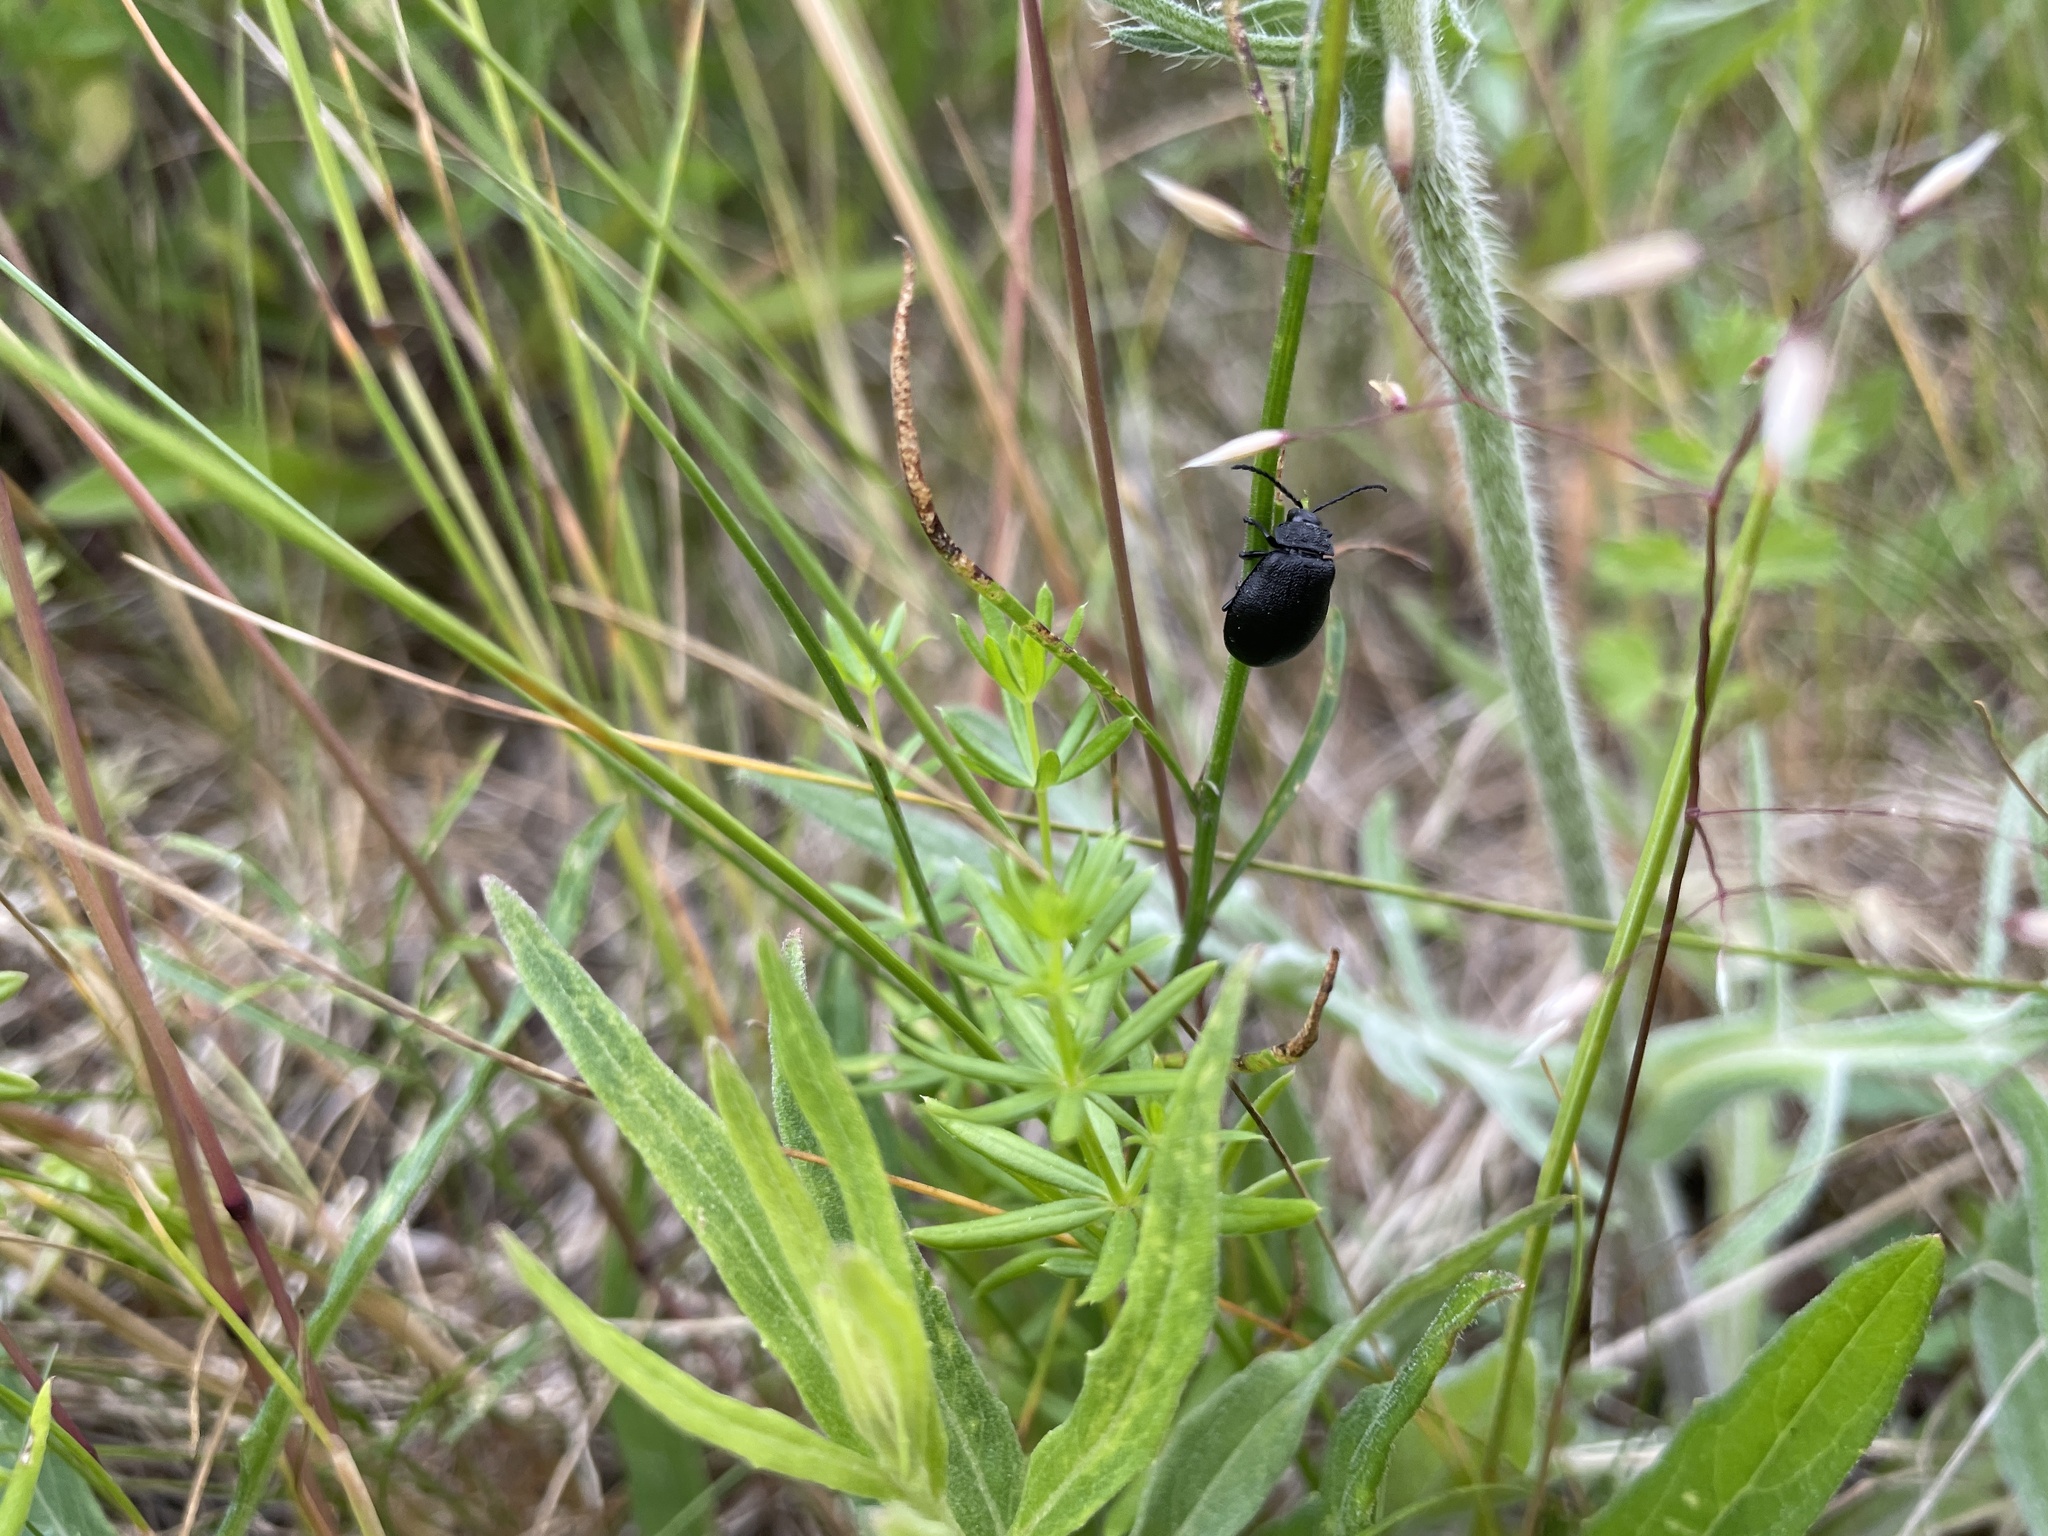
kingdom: Animalia
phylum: Arthropoda
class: Insecta
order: Coleoptera
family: Chrysomelidae
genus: Galeruca
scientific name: Galeruca tanaceti
